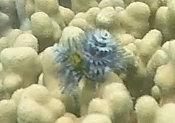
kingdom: Animalia
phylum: Annelida
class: Polychaeta
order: Sabellida
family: Serpulidae
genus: Spirobranchus
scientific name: Spirobranchus
